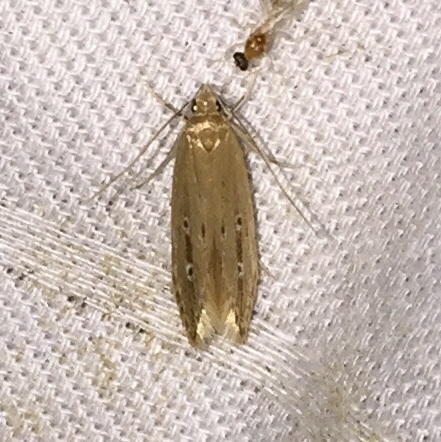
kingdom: Animalia
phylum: Arthropoda
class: Insecta
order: Lepidoptera
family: Cosmopterigidae
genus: Limnaecia
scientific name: Limnaecia phragmitella
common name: Bulrush cosmet
